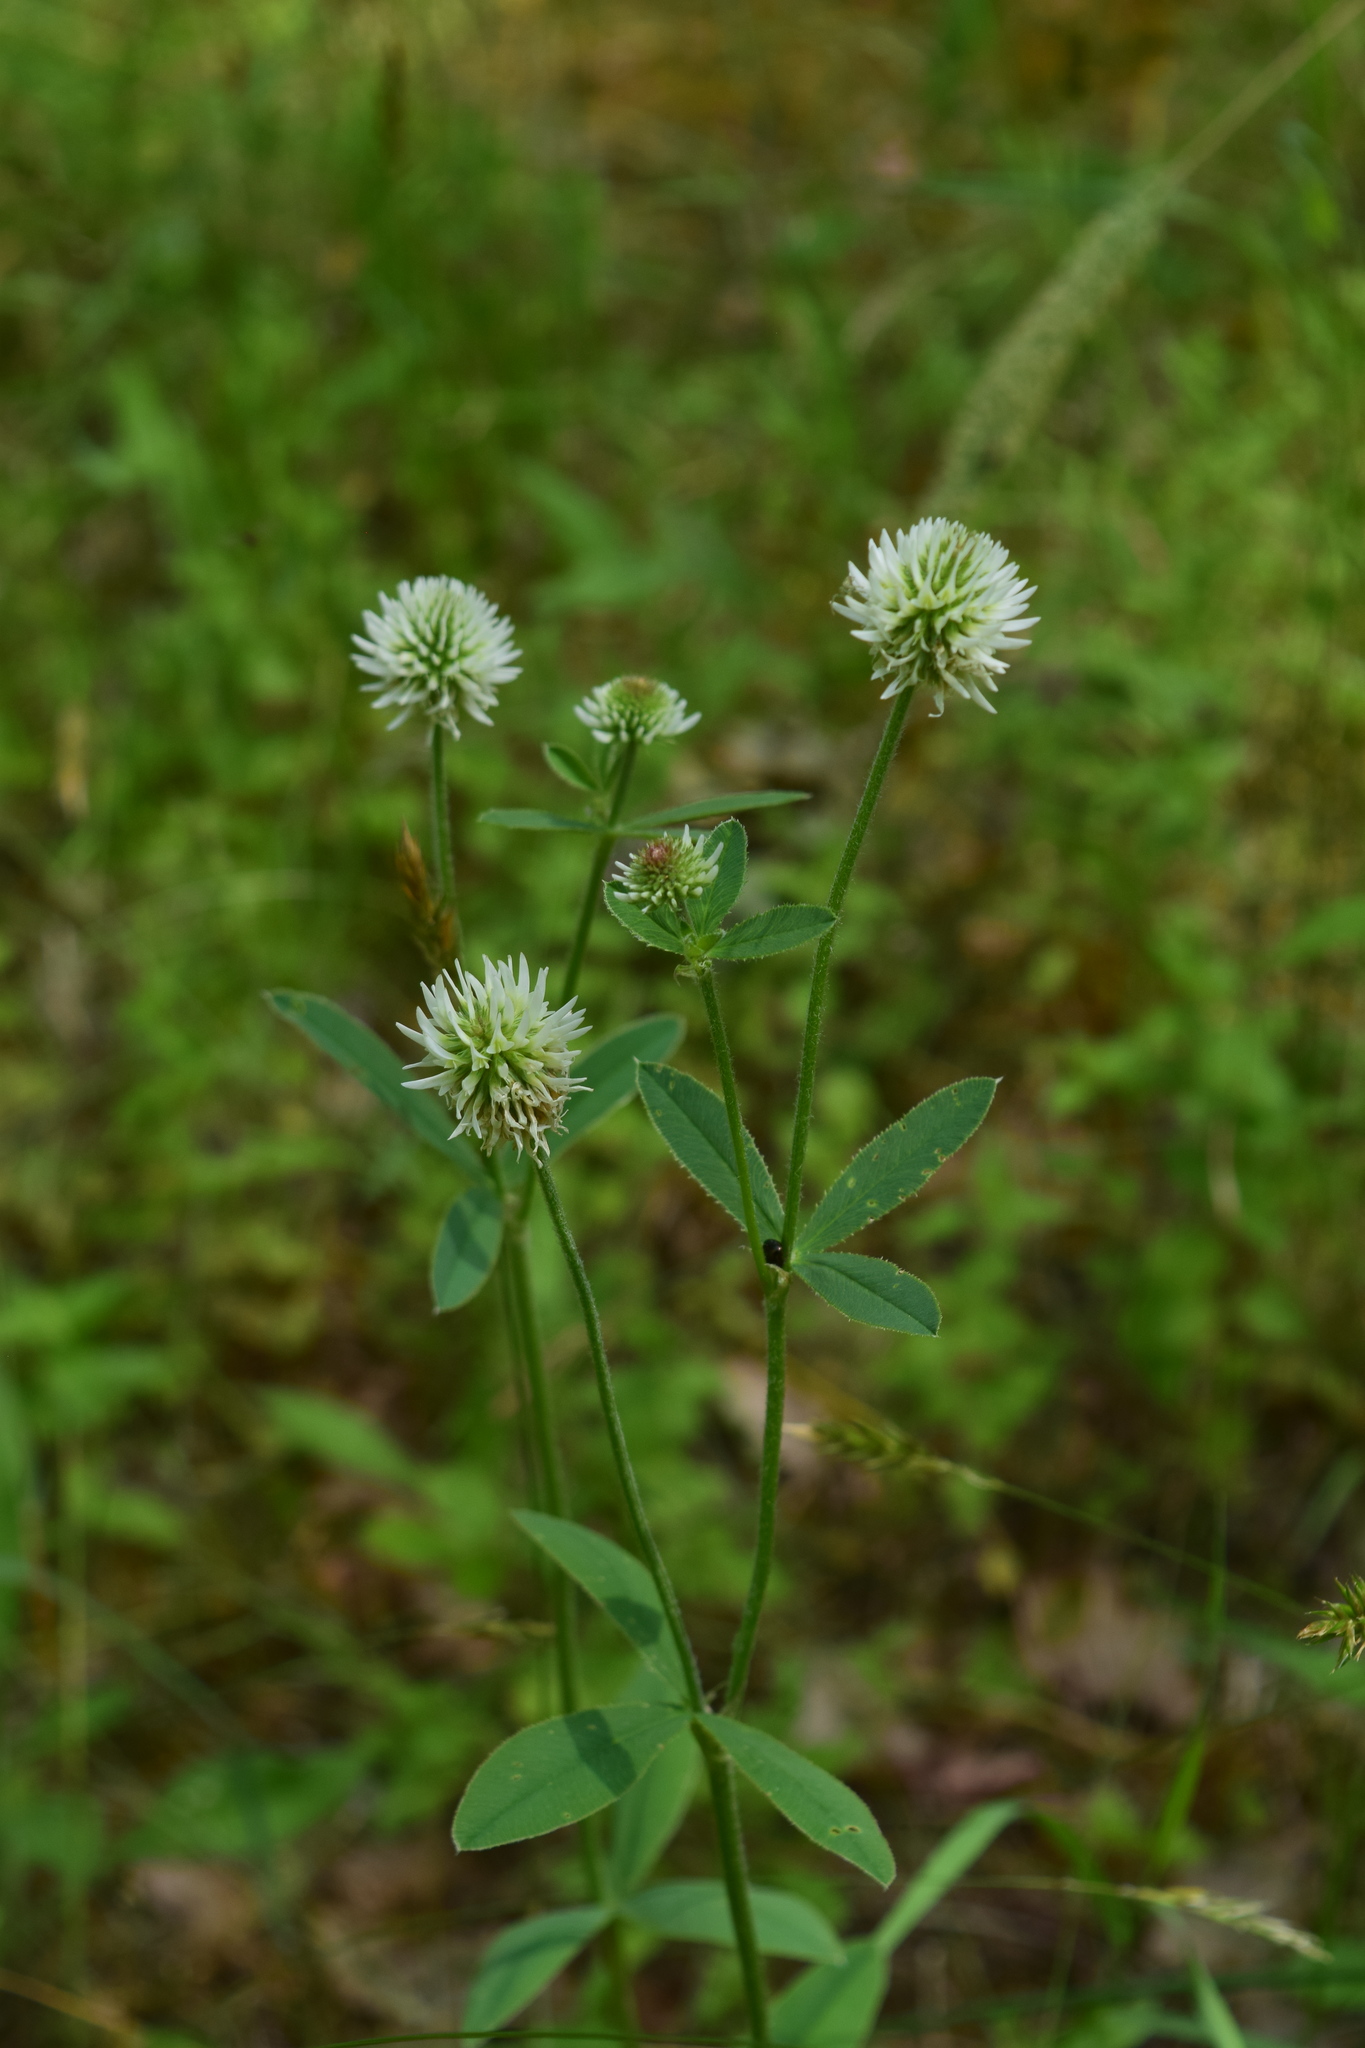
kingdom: Plantae
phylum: Tracheophyta
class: Magnoliopsida
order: Fabales
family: Fabaceae
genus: Trifolium
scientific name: Trifolium montanum
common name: Mountain clover
